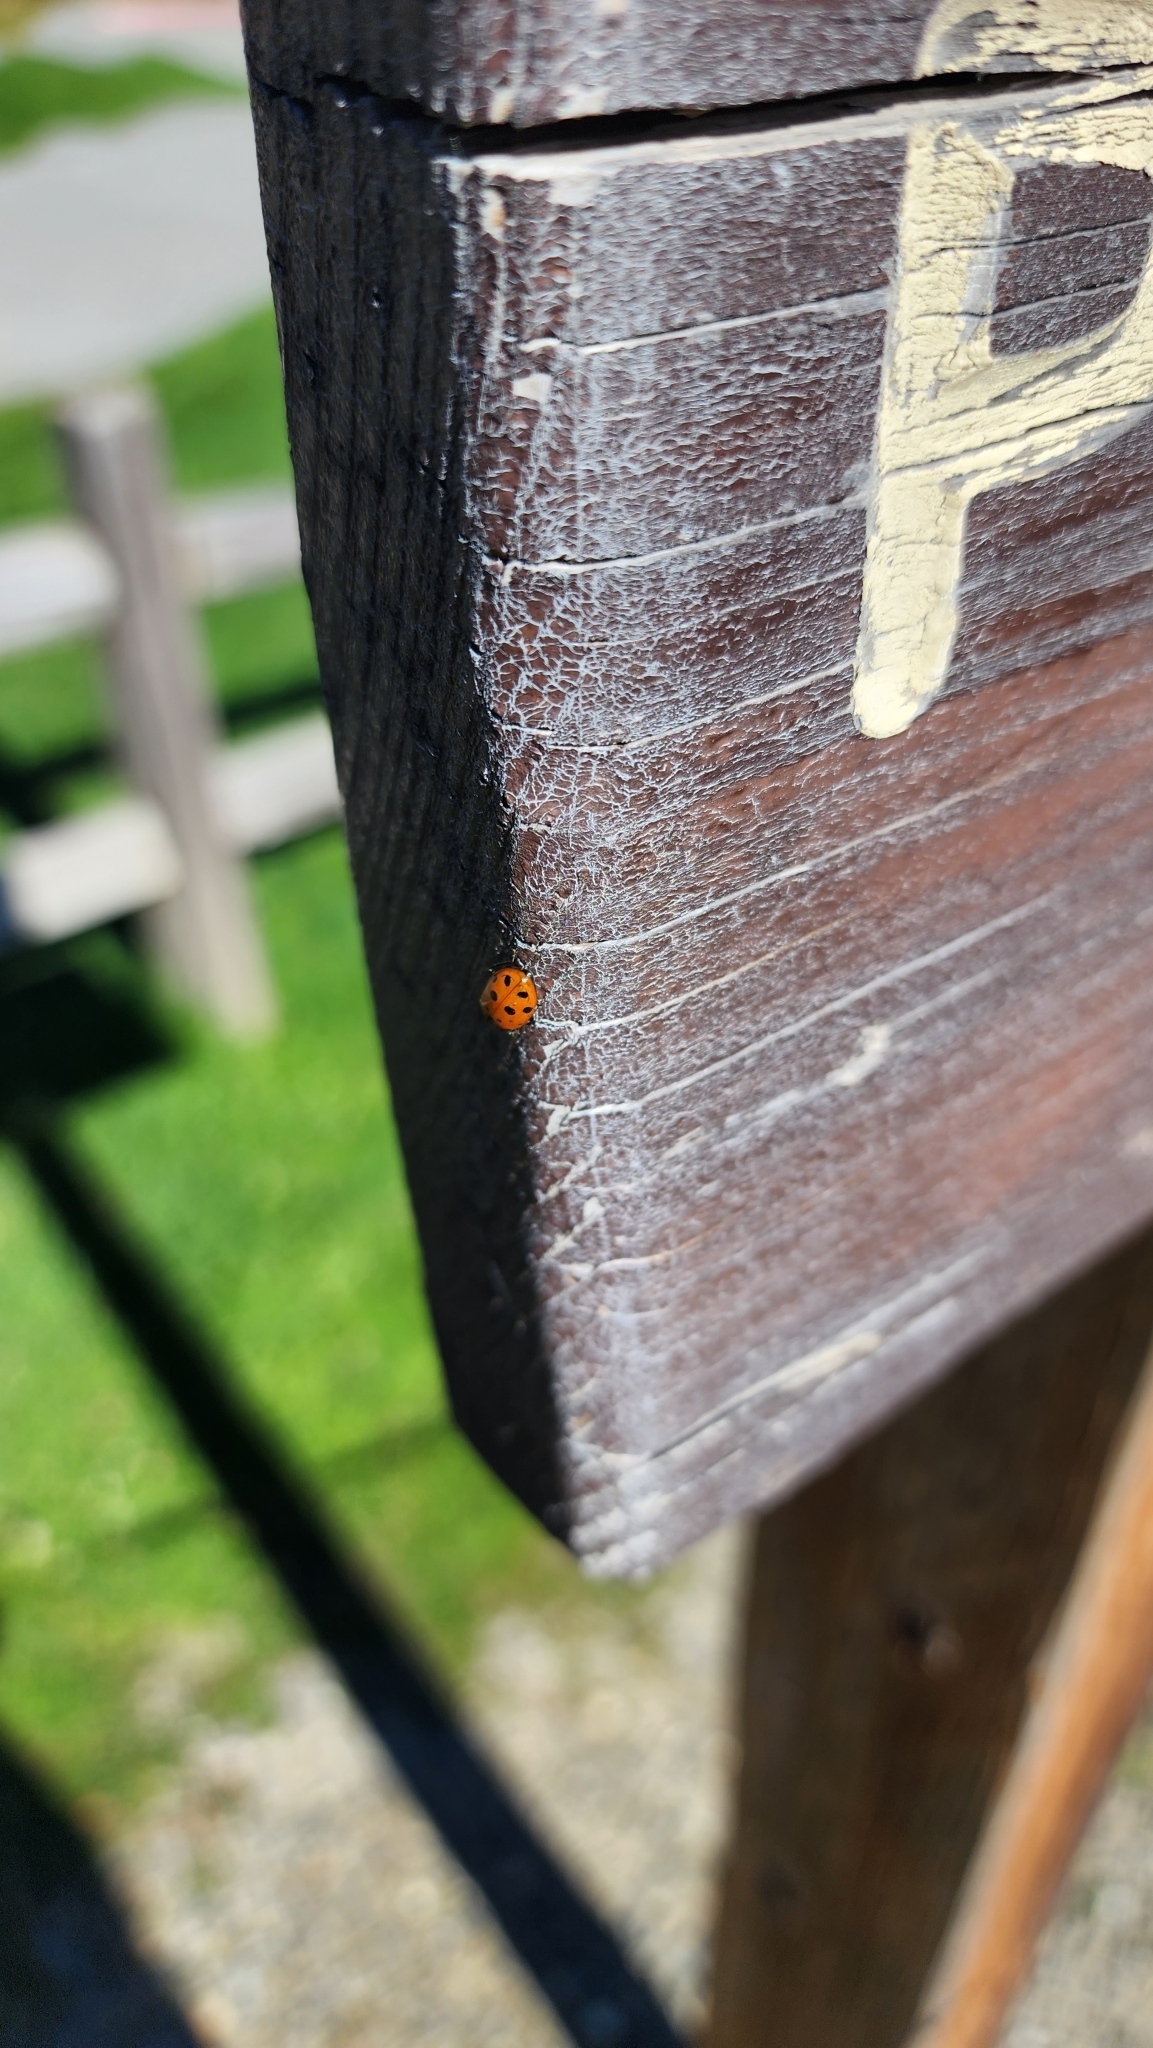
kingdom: Animalia
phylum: Arthropoda
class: Insecta
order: Coleoptera
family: Coccinellidae
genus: Hippodamia
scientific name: Hippodamia convergens
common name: Convergent lady beetle
